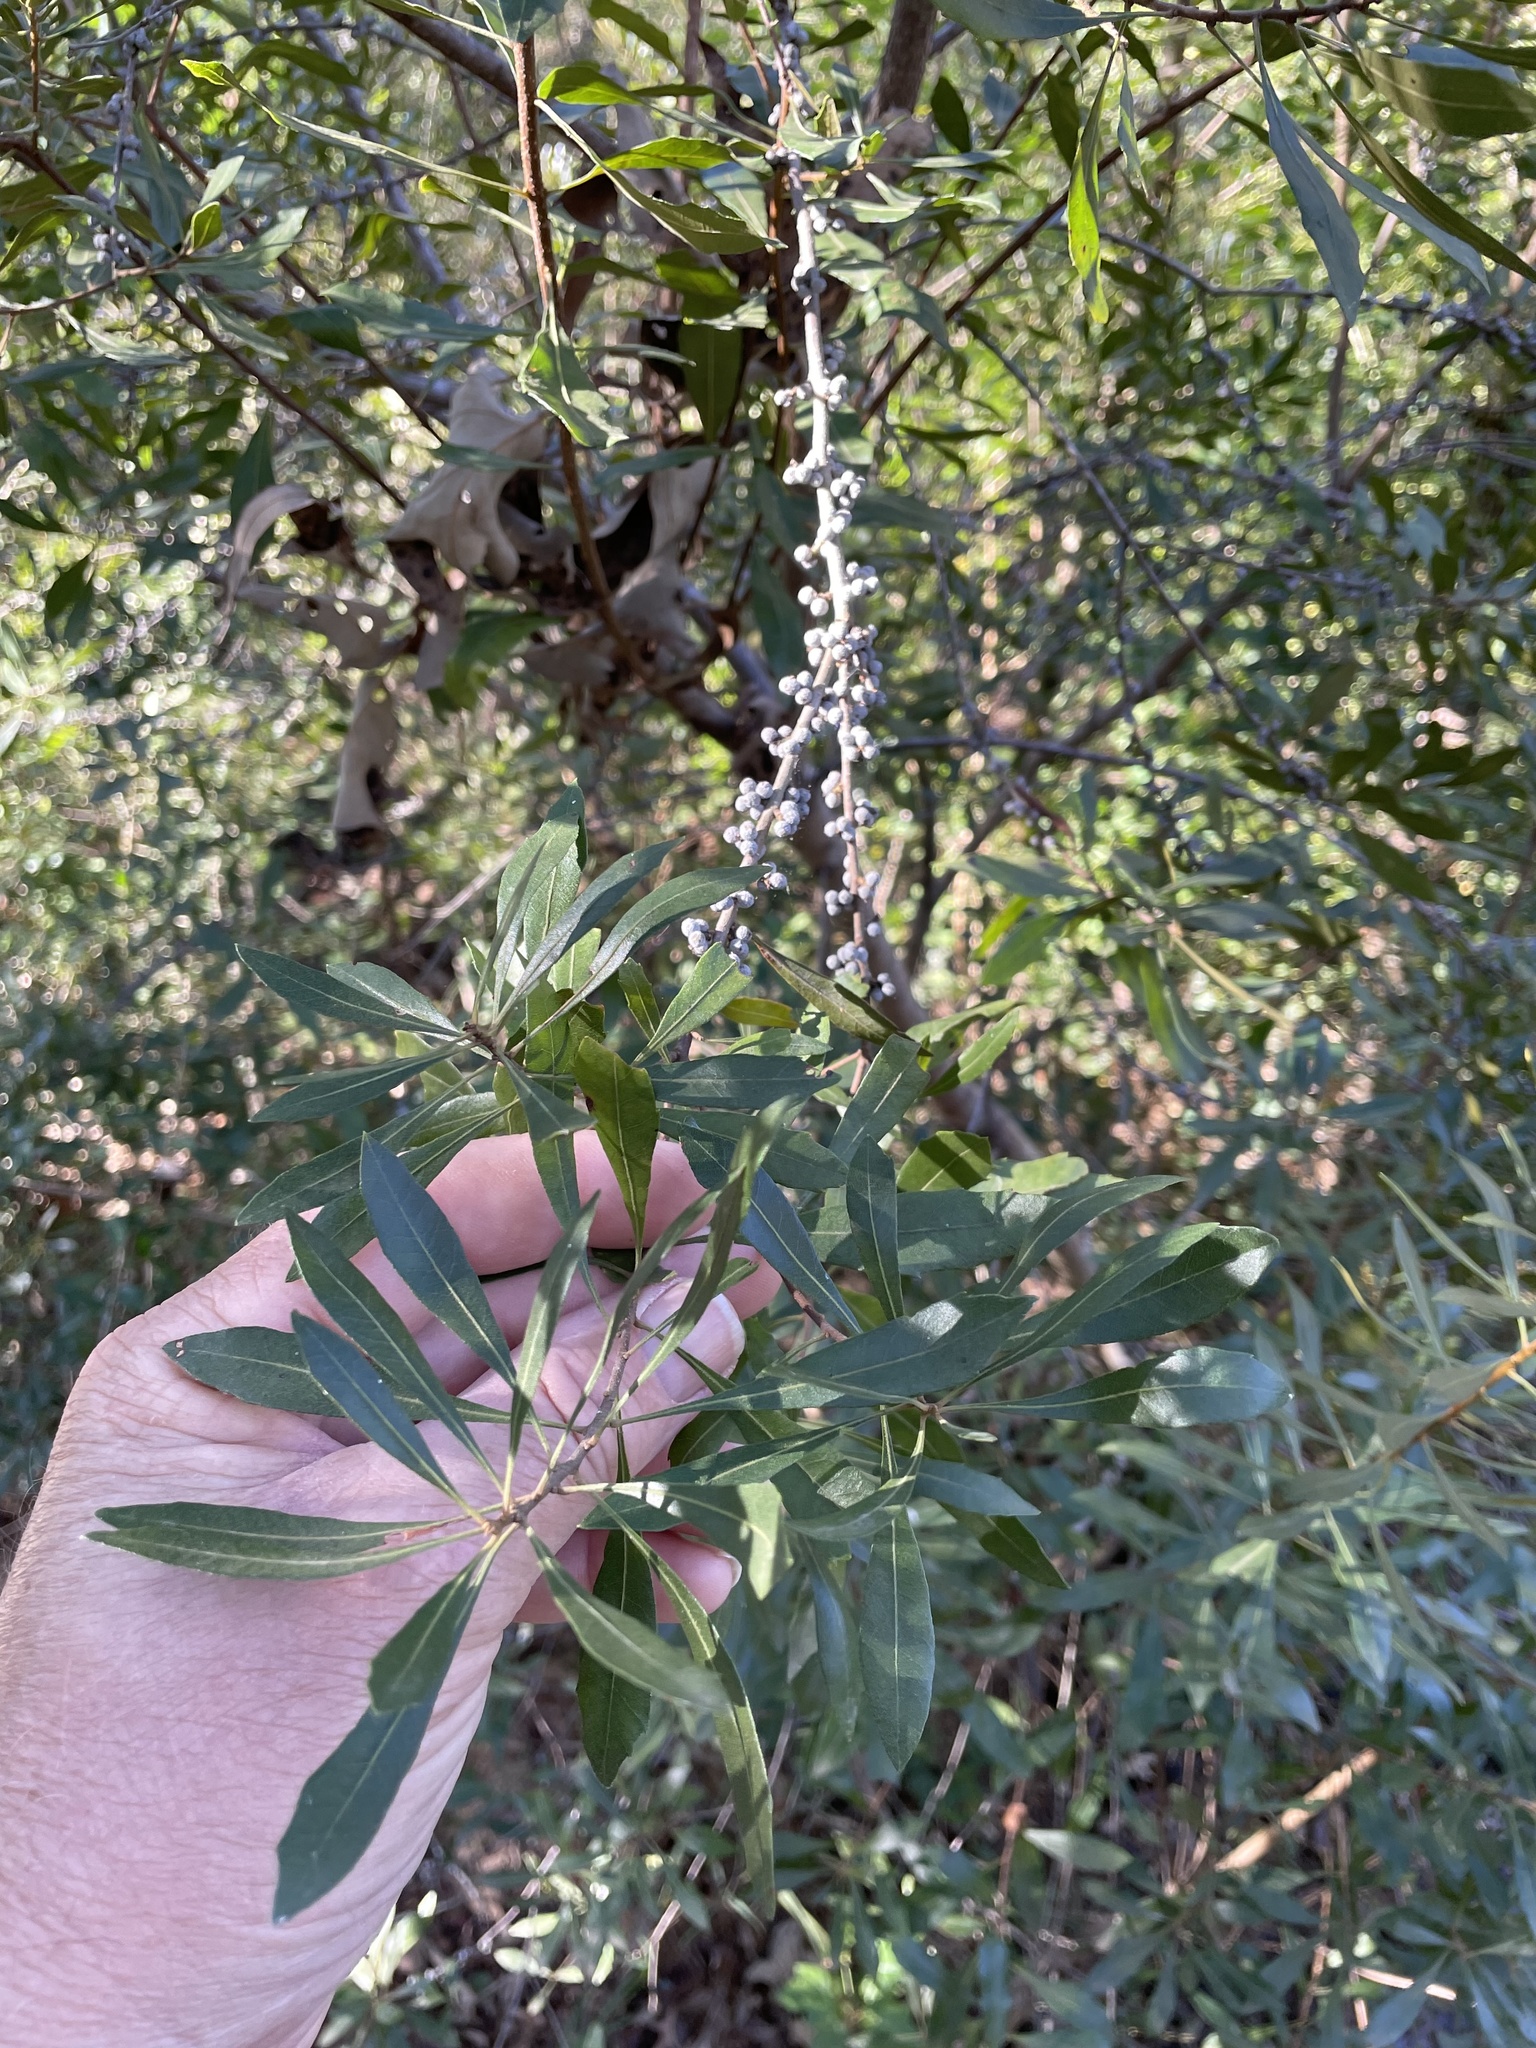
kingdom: Plantae
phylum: Tracheophyta
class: Magnoliopsida
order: Fagales
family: Myricaceae
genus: Morella
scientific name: Morella cerifera
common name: Wax myrtle
